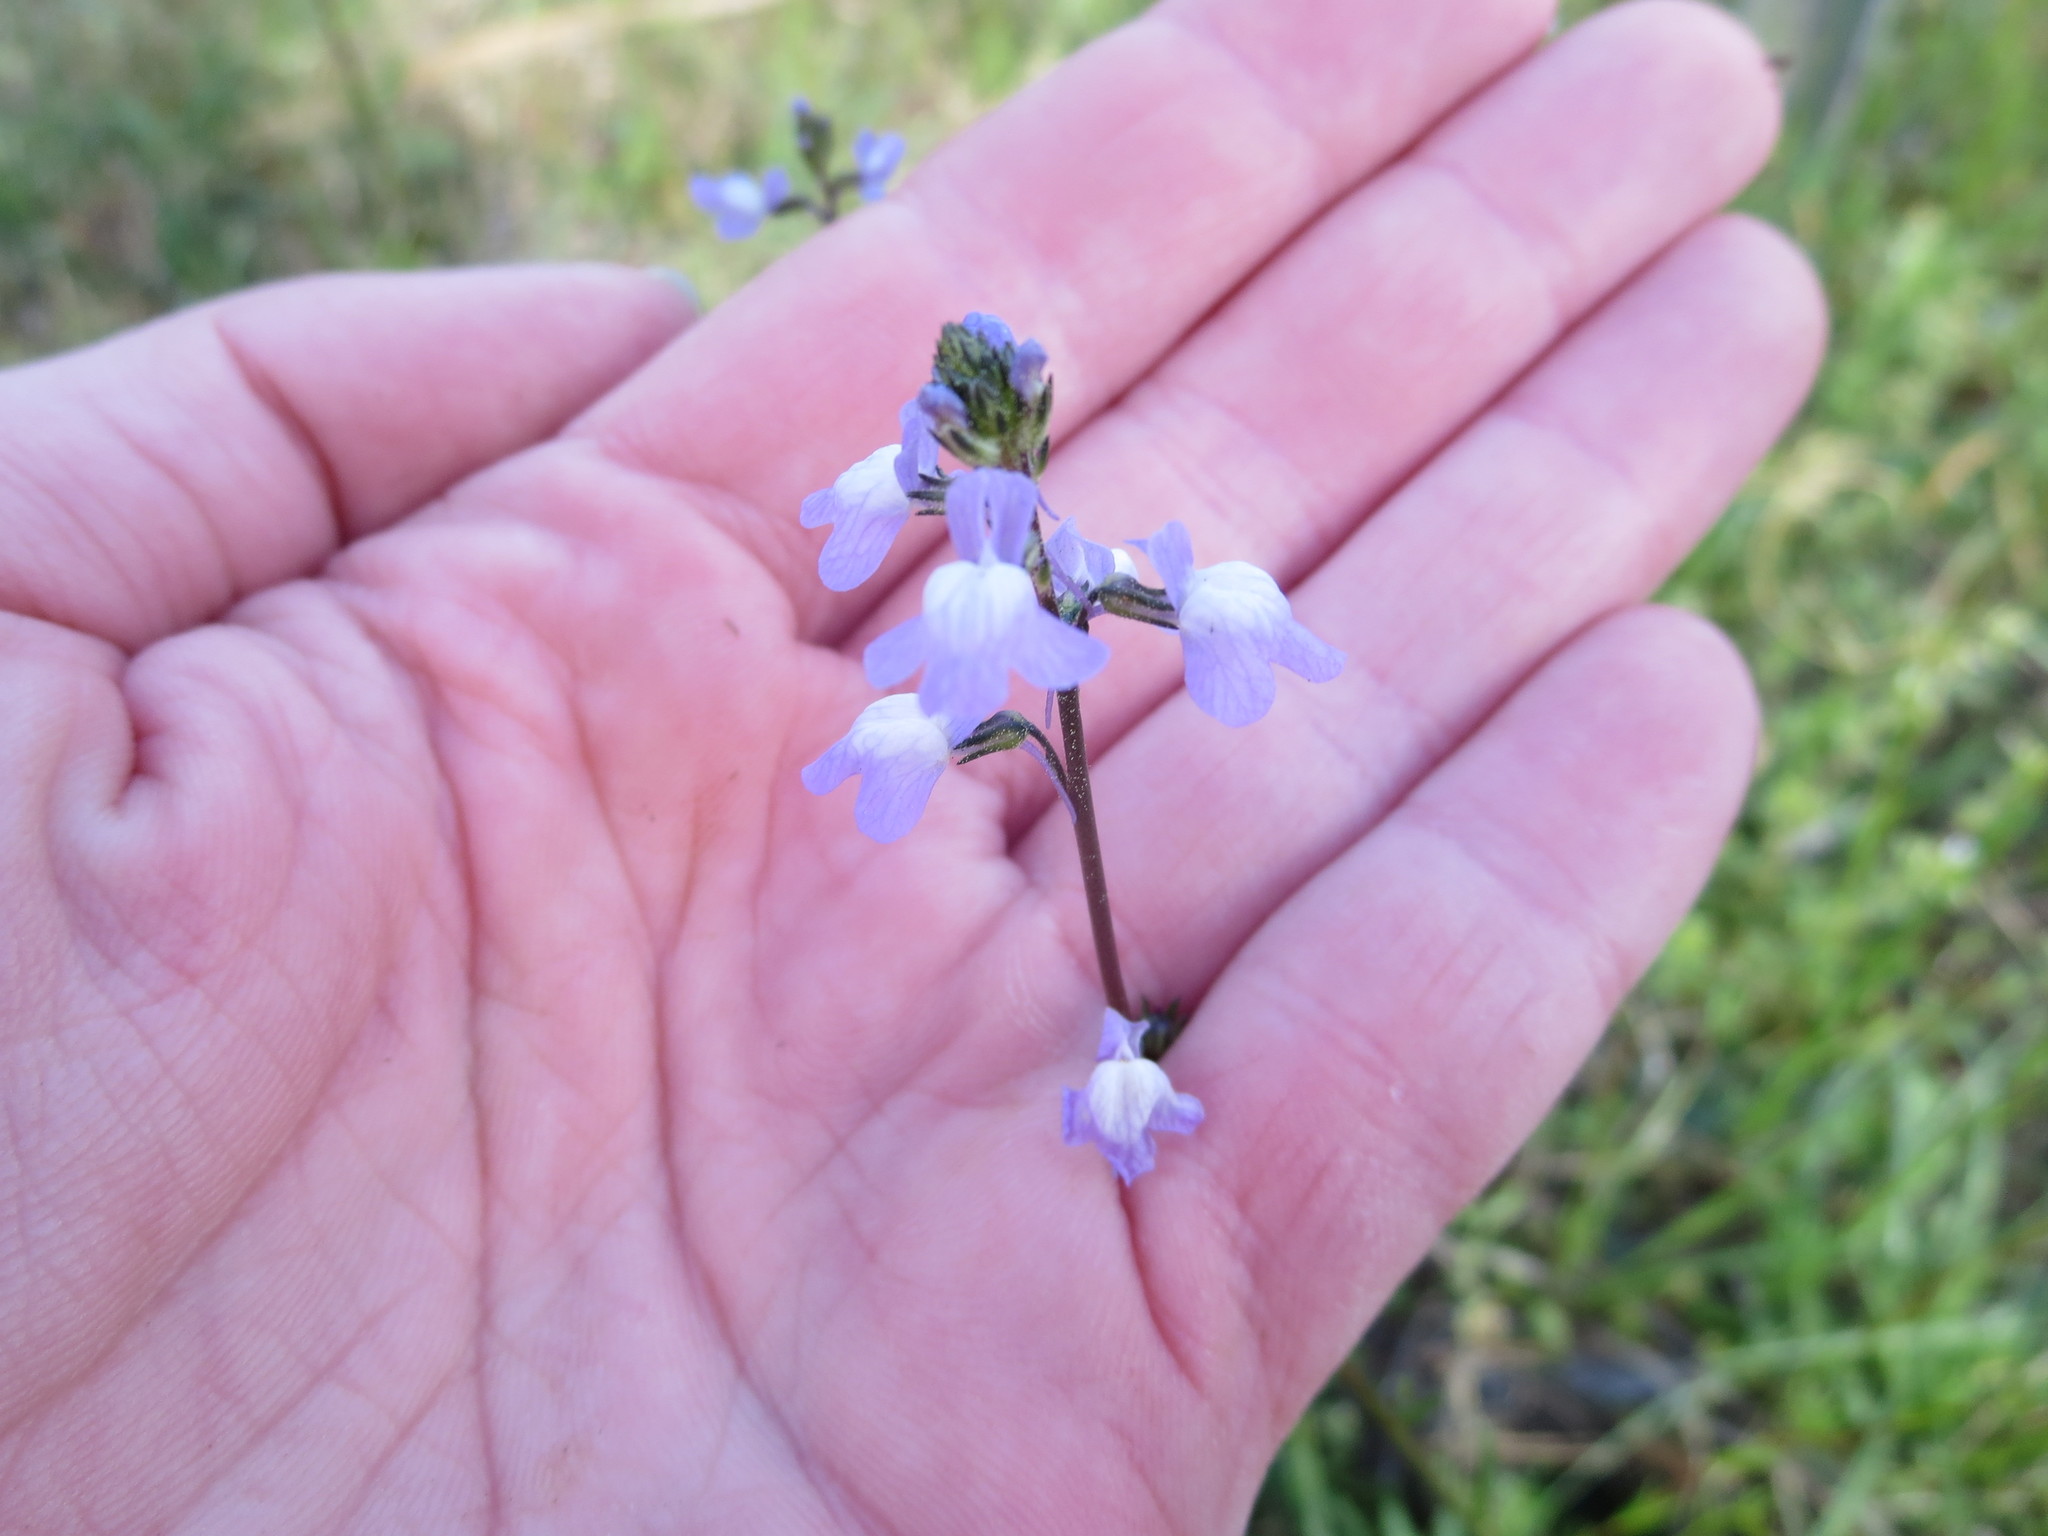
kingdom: Plantae
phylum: Tracheophyta
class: Magnoliopsida
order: Lamiales
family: Plantaginaceae
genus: Nuttallanthus
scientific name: Nuttallanthus canadensis
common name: Blue toadflax
